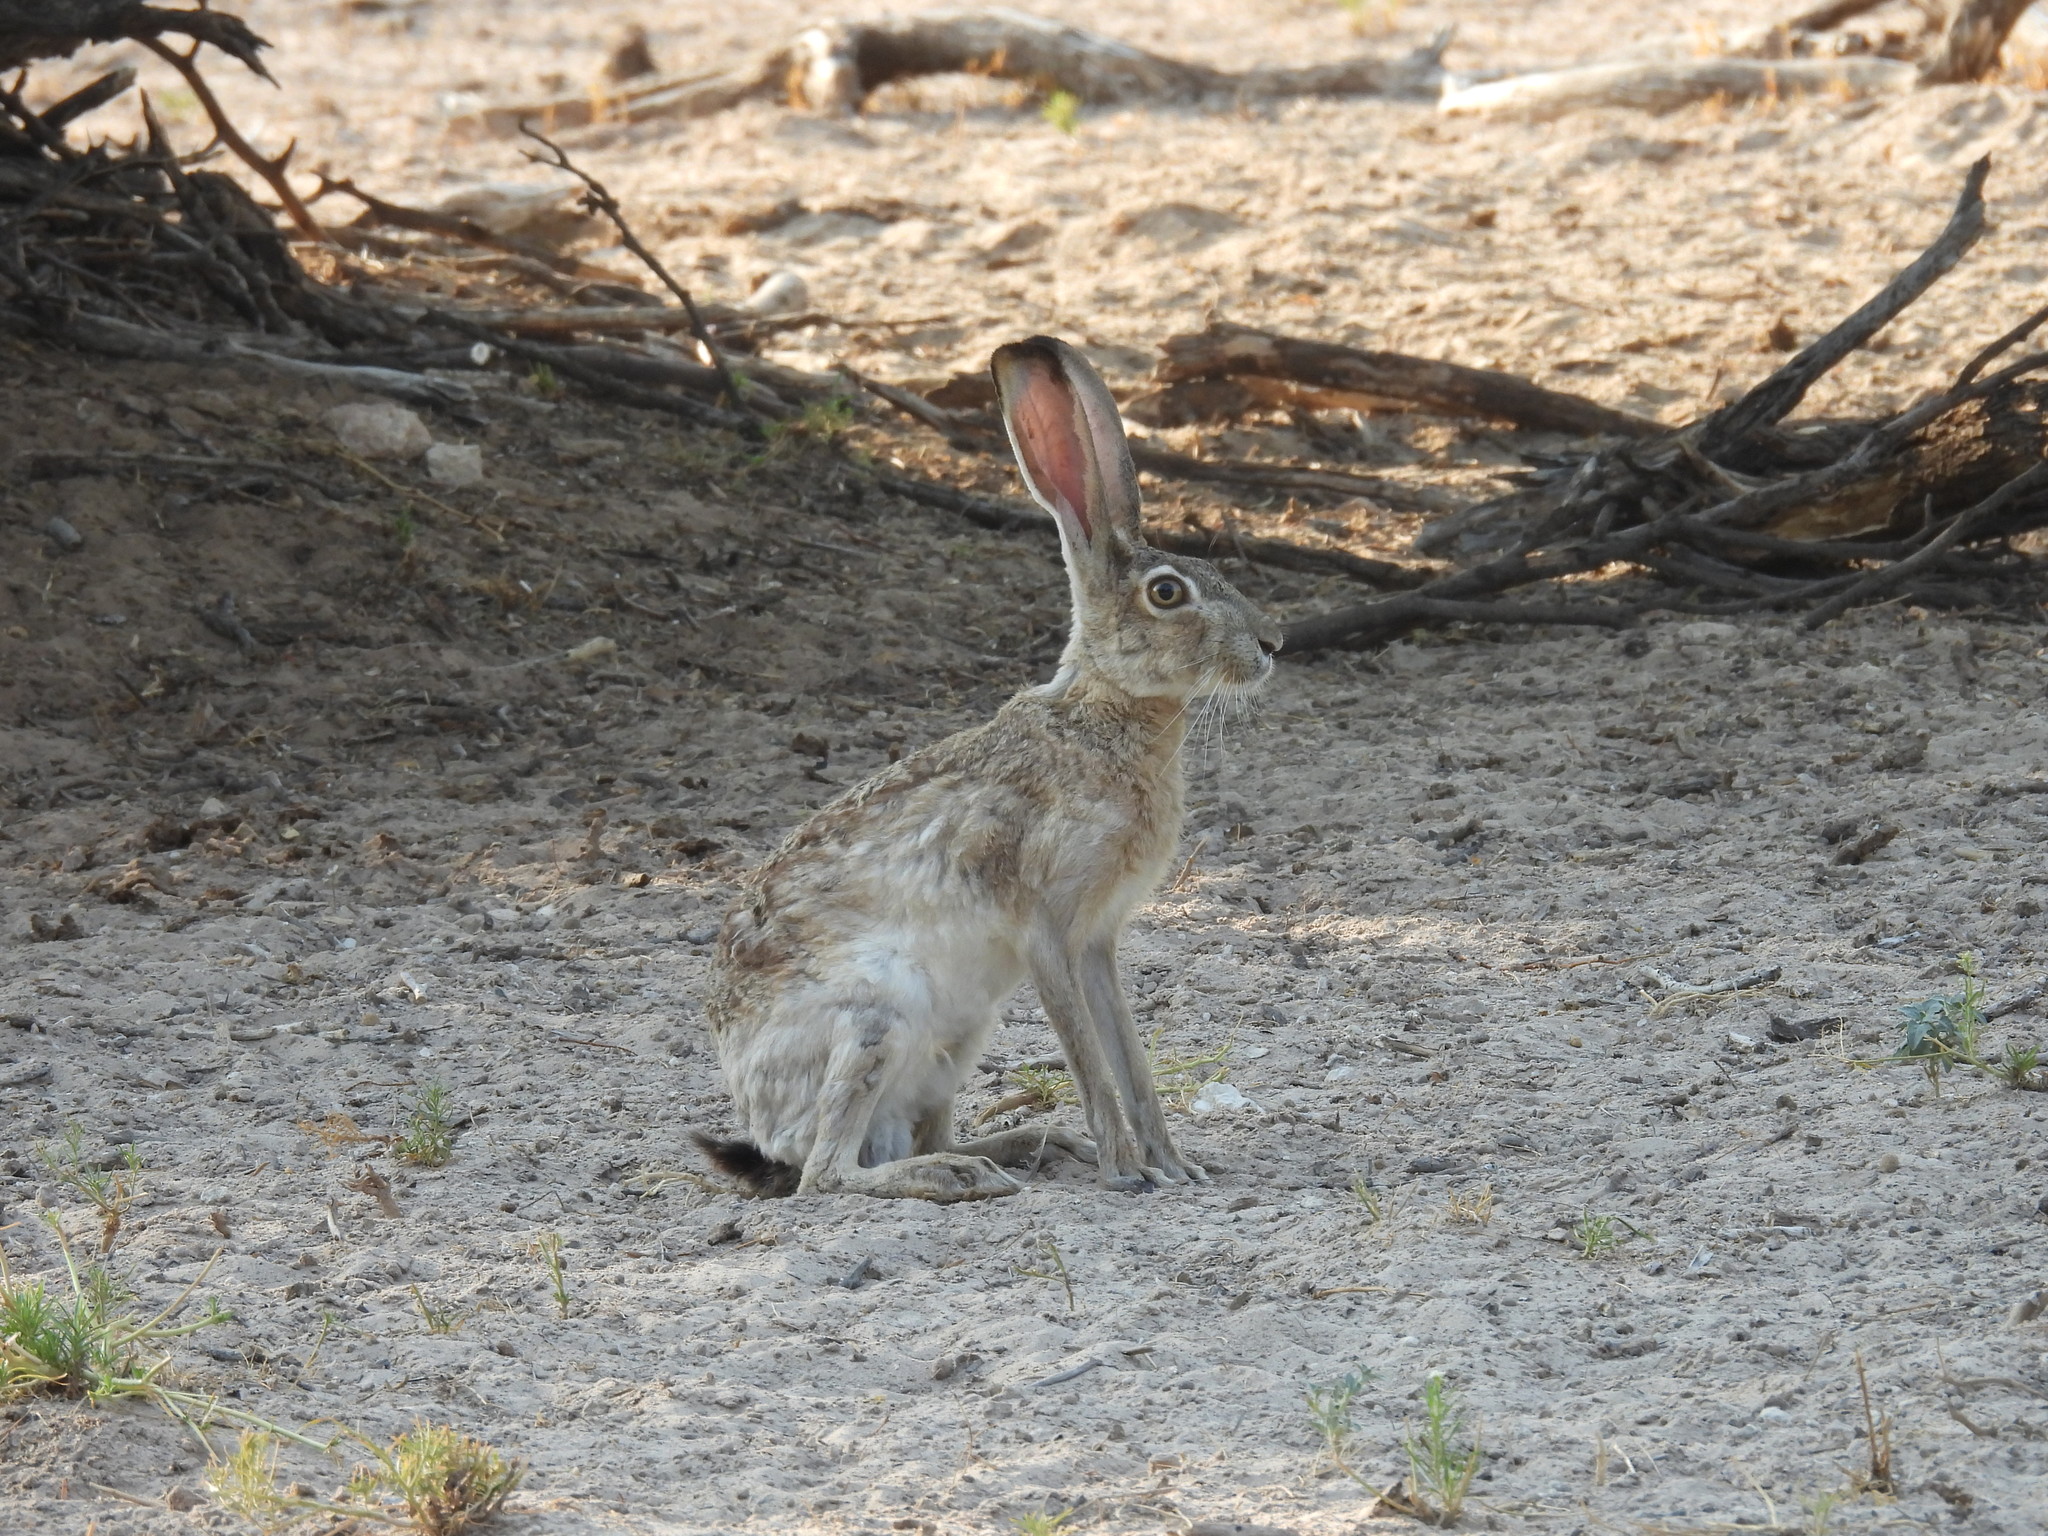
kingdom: Animalia
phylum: Chordata
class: Mammalia
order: Lagomorpha
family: Leporidae
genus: Lepus
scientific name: Lepus californicus
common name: Black-tailed jackrabbit
